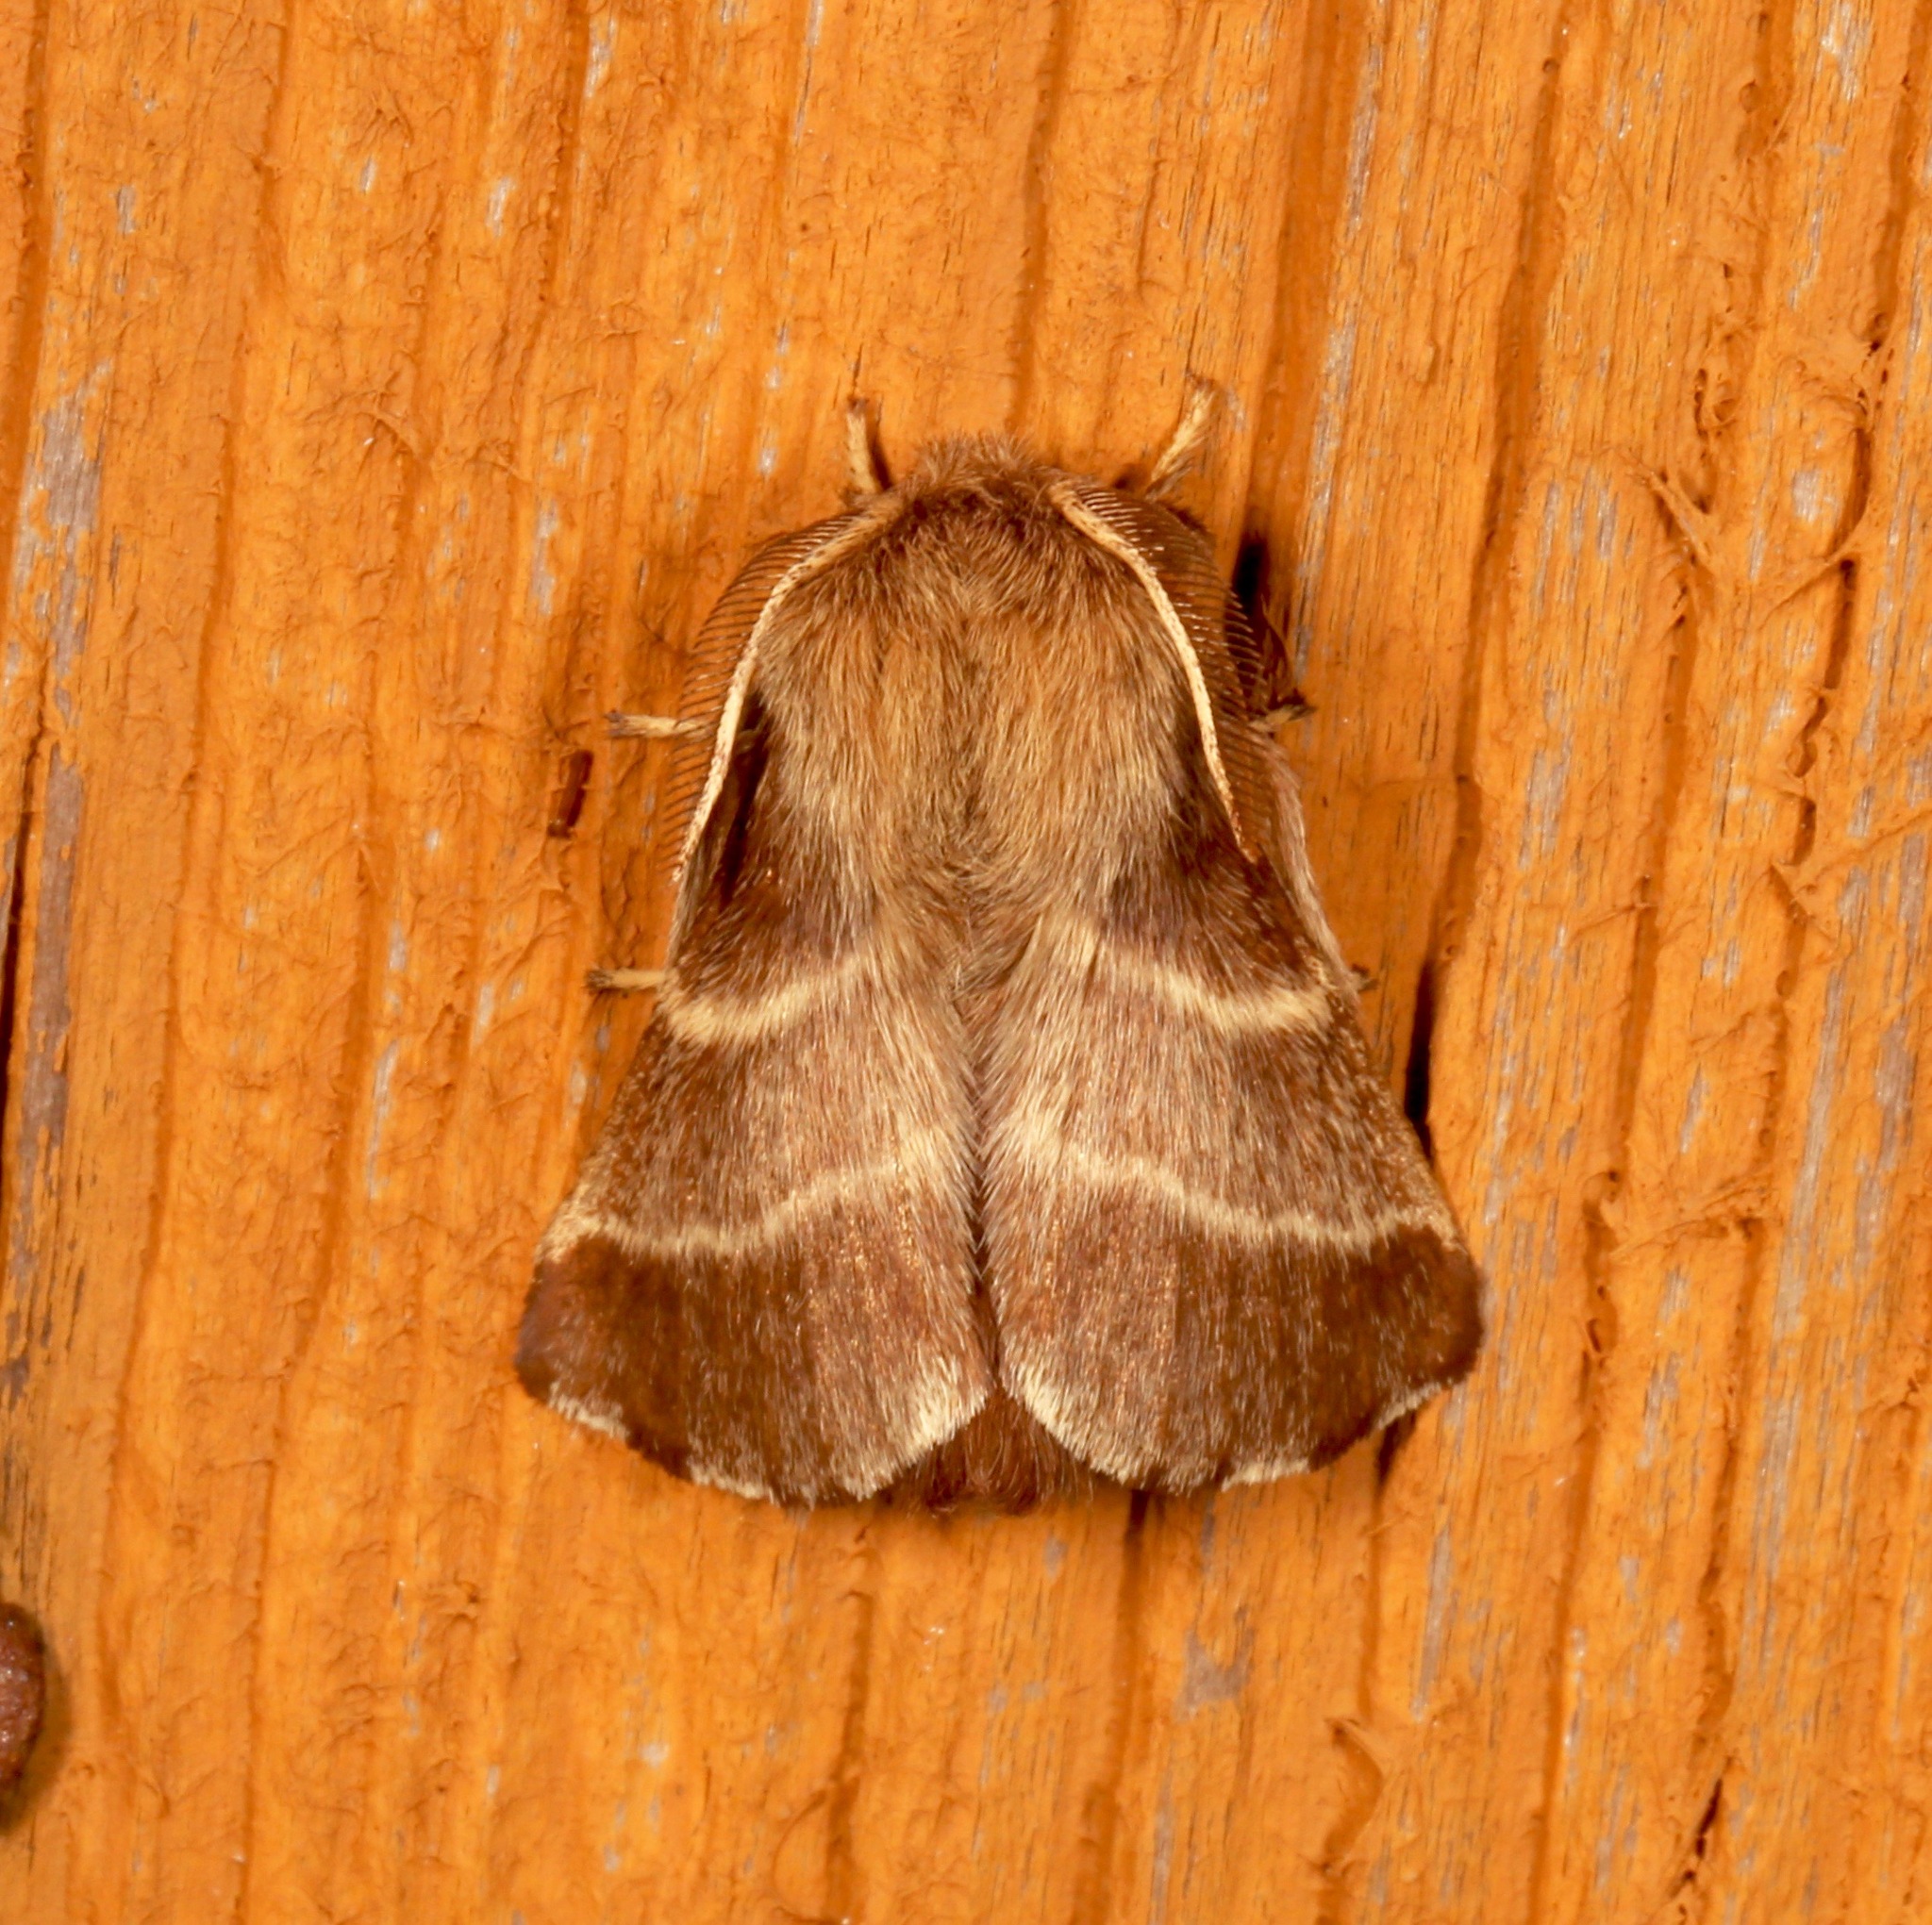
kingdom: Animalia
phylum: Arthropoda
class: Insecta
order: Lepidoptera
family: Lasiocampidae
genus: Malacosoma
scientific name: Malacosoma americana
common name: Eastern tent caterpillar moth
